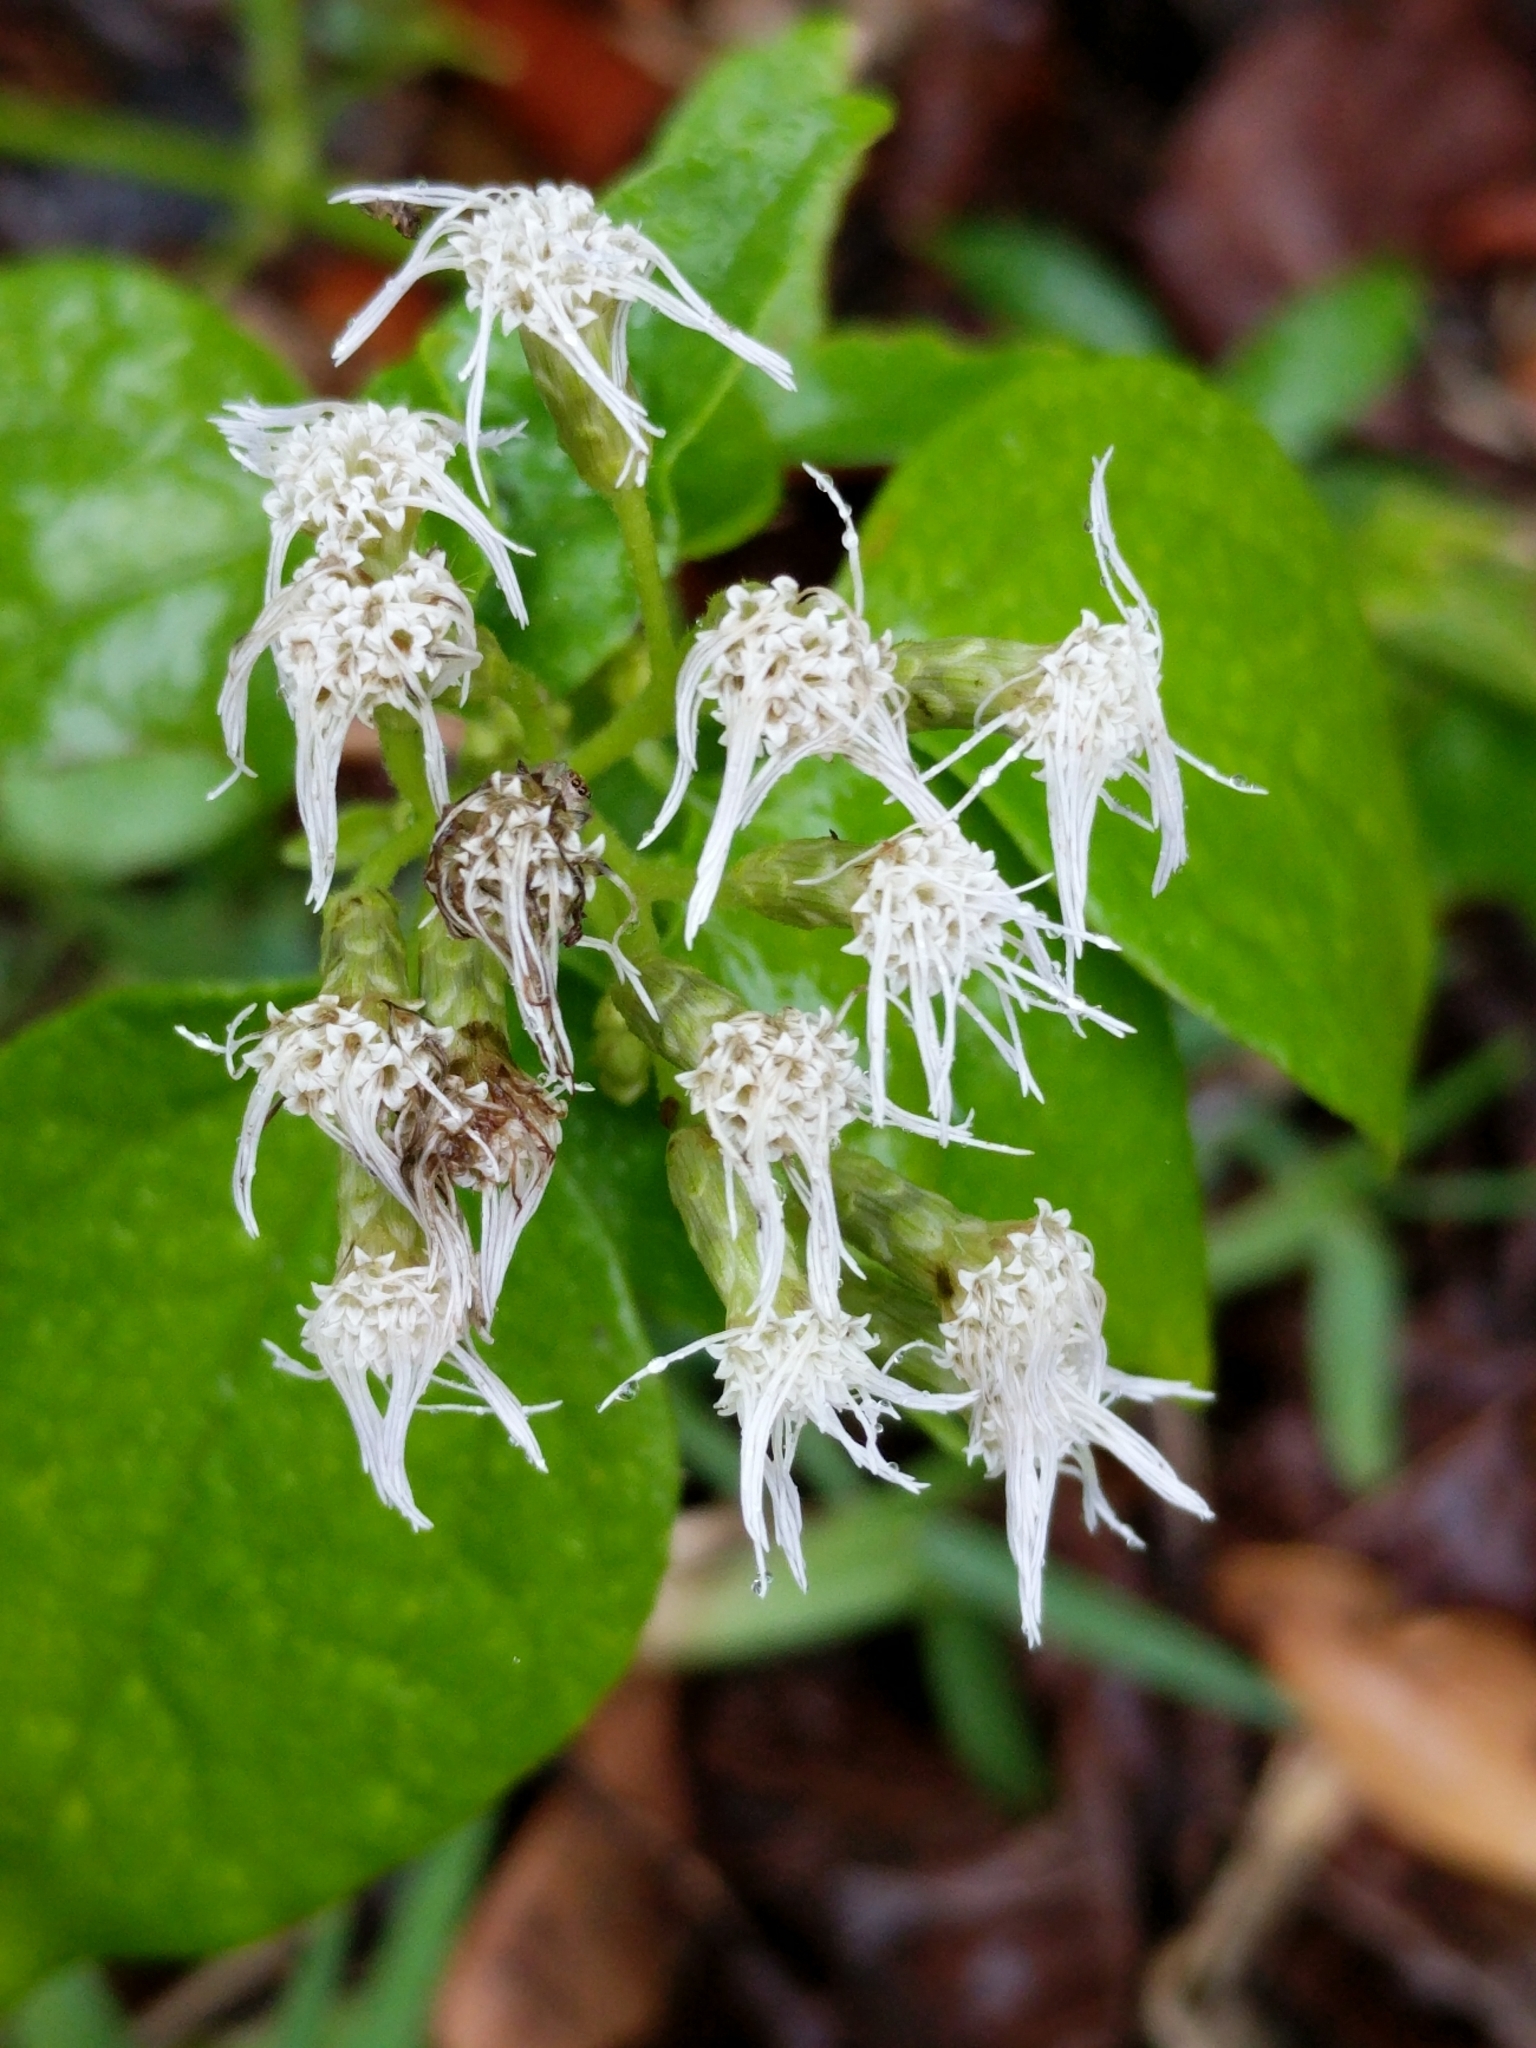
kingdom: Plantae
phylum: Tracheophyta
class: Magnoliopsida
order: Asterales
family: Asteraceae
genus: Chromolaena
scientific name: Chromolaena odorata
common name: Siamweed
